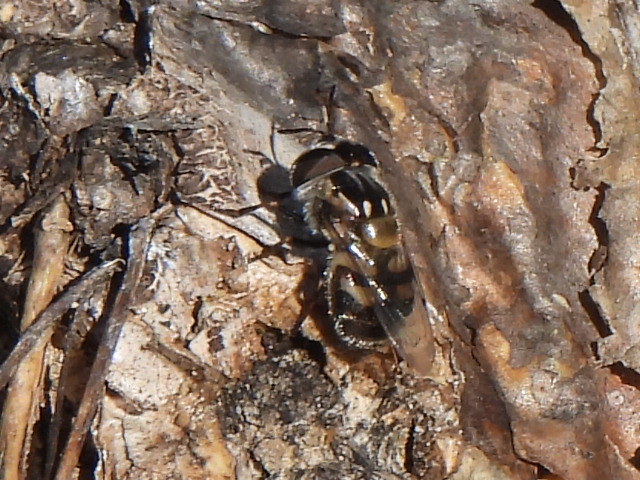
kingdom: Animalia
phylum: Arthropoda
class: Insecta
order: Diptera
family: Syrphidae
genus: Copestylum
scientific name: Copestylum marginatum
